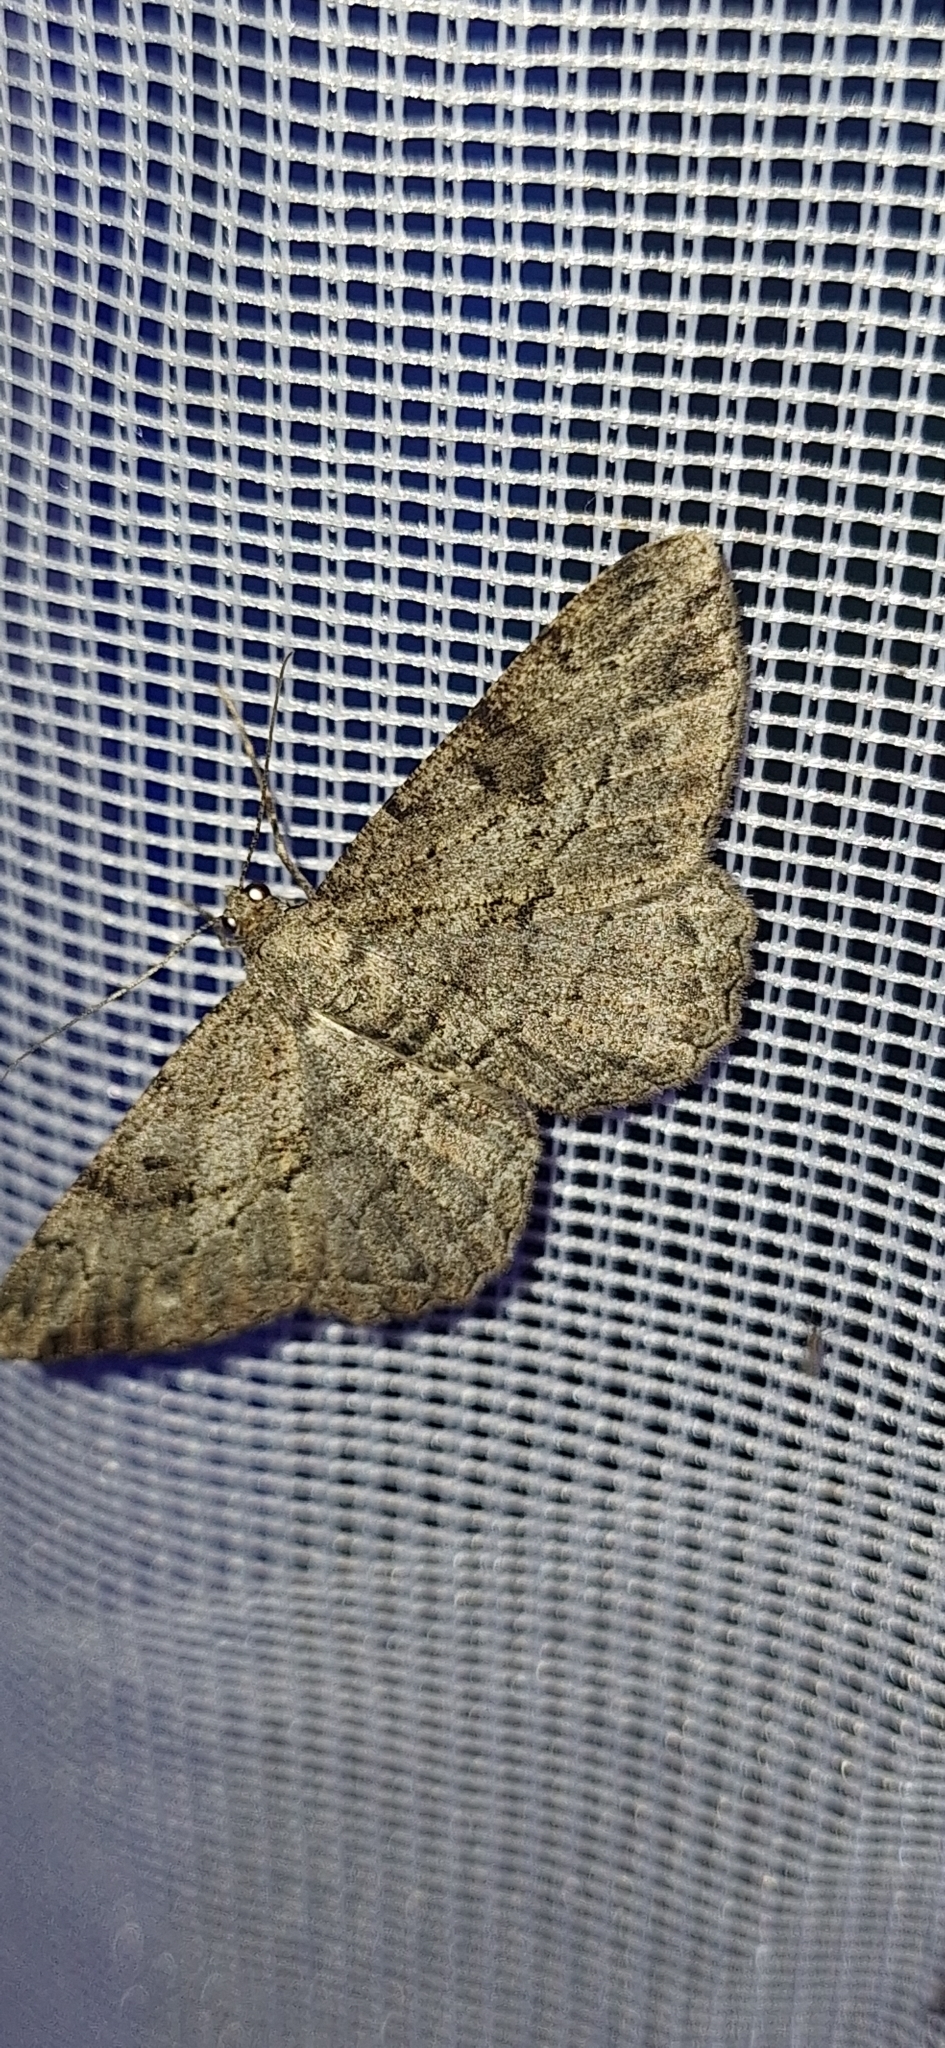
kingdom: Animalia
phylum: Arthropoda
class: Insecta
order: Lepidoptera
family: Geometridae
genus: Peribatodes
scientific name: Peribatodes rhomboidaria
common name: Willow beauty
